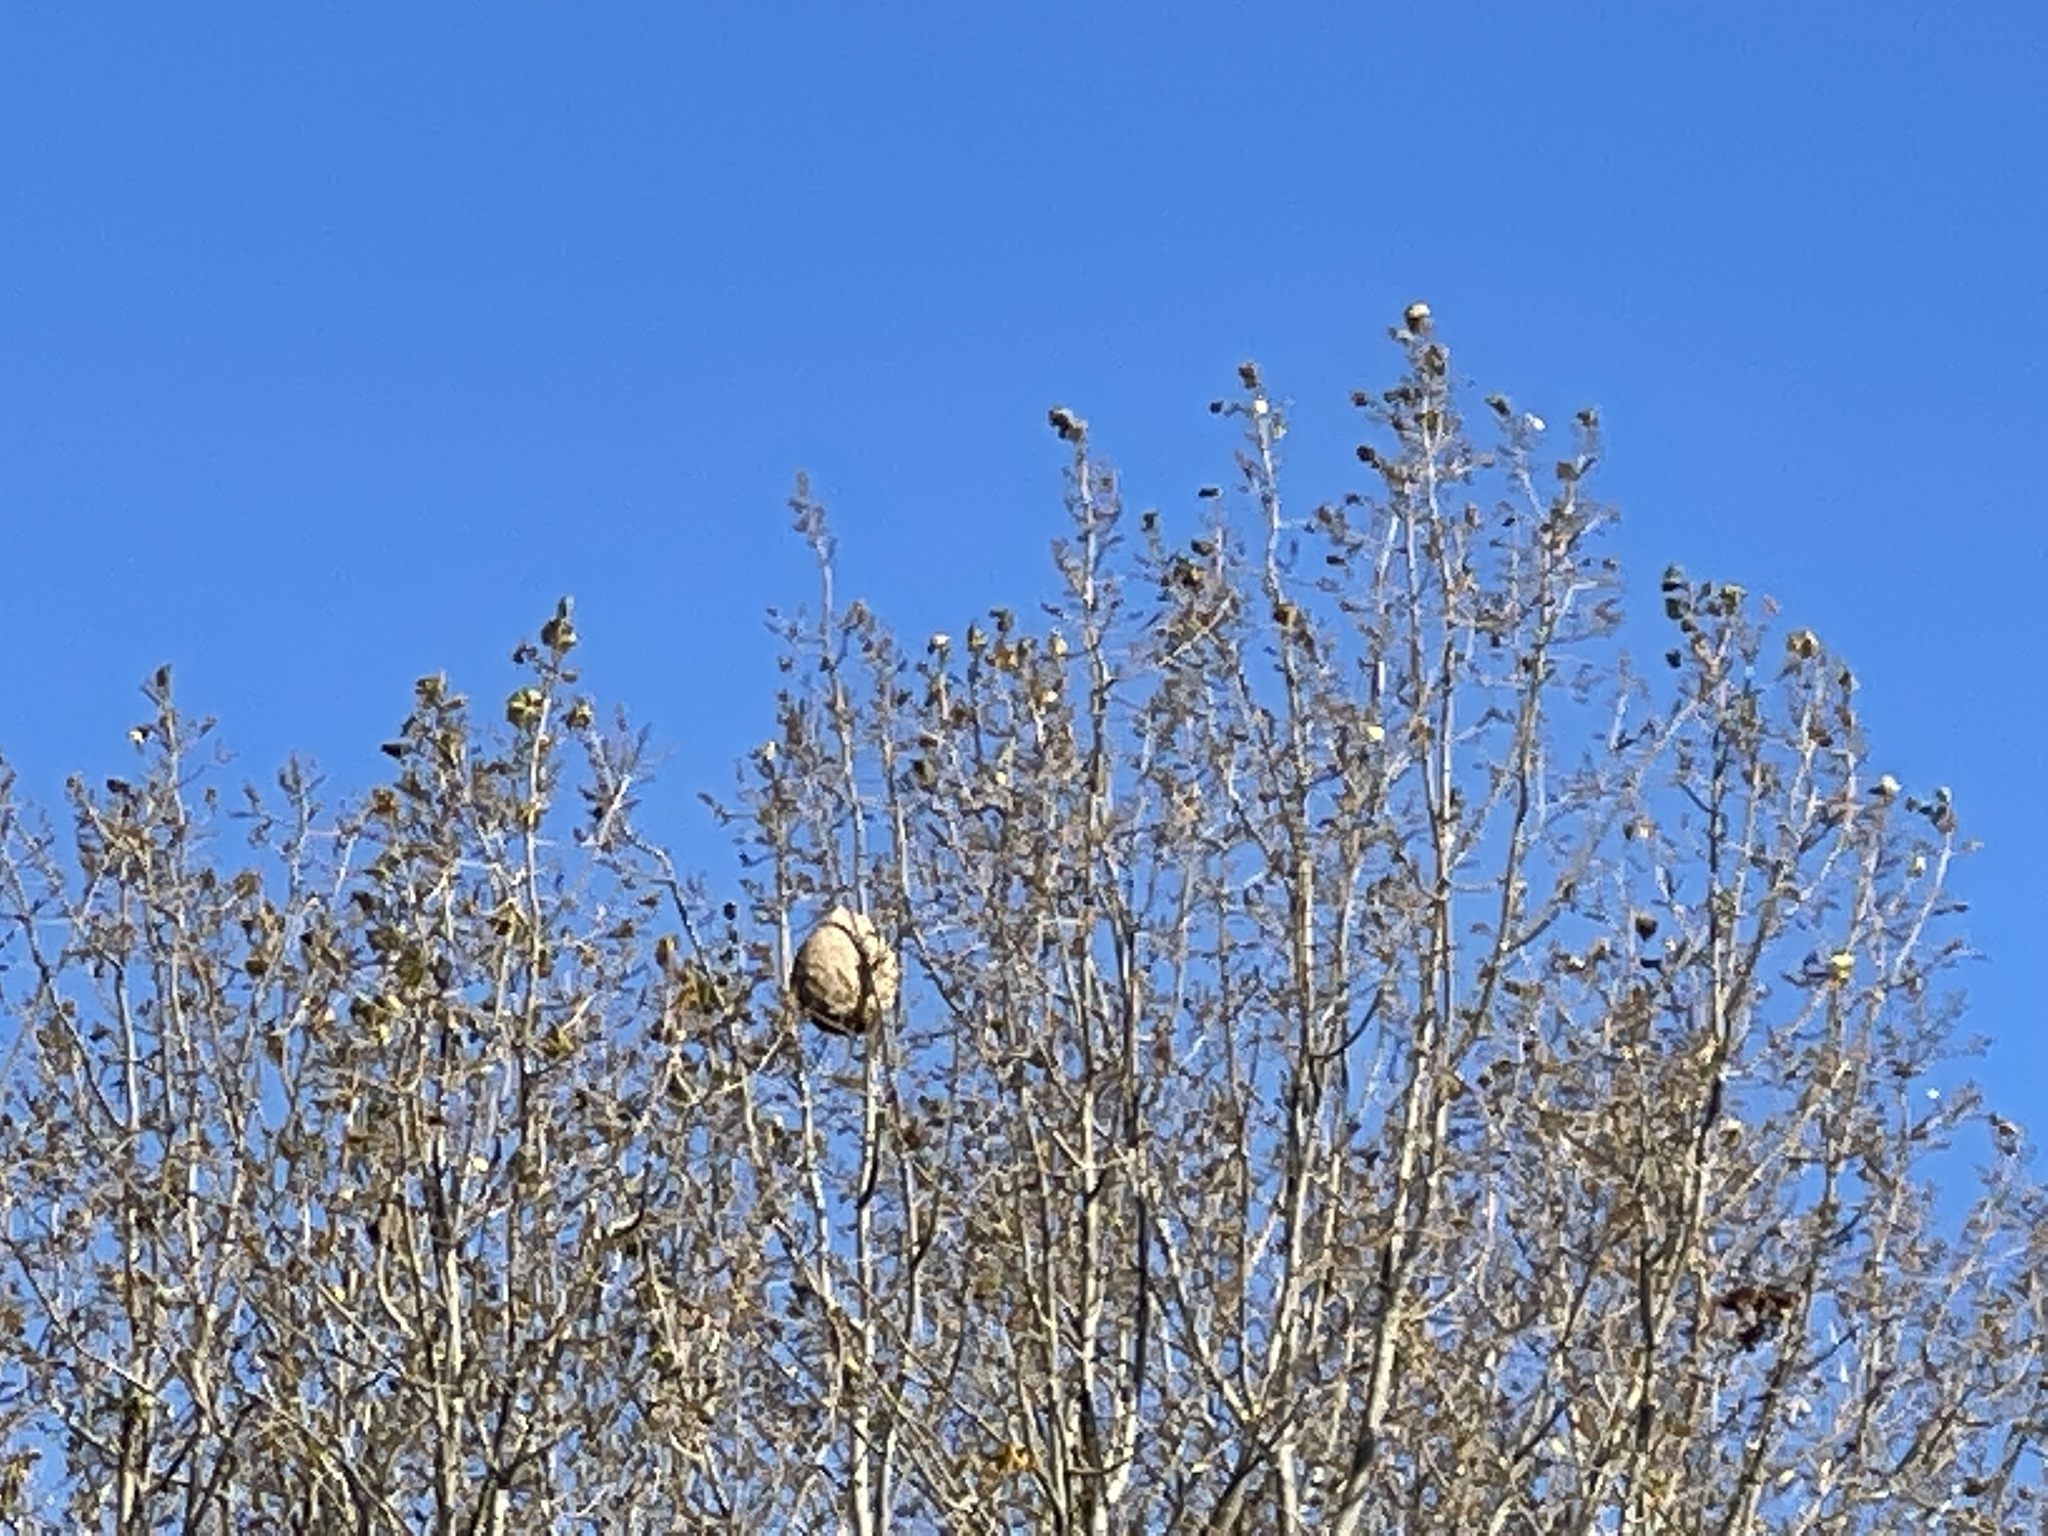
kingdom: Animalia
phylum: Arthropoda
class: Insecta
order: Hymenoptera
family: Vespidae
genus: Vespa
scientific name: Vespa velutina
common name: Asian hornet
